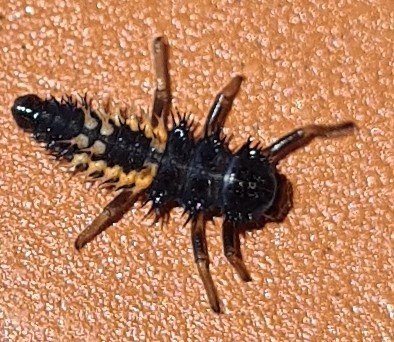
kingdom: Animalia
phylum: Arthropoda
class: Insecta
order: Coleoptera
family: Coccinellidae
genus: Harmonia
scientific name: Harmonia axyridis
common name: Harlequin ladybird
